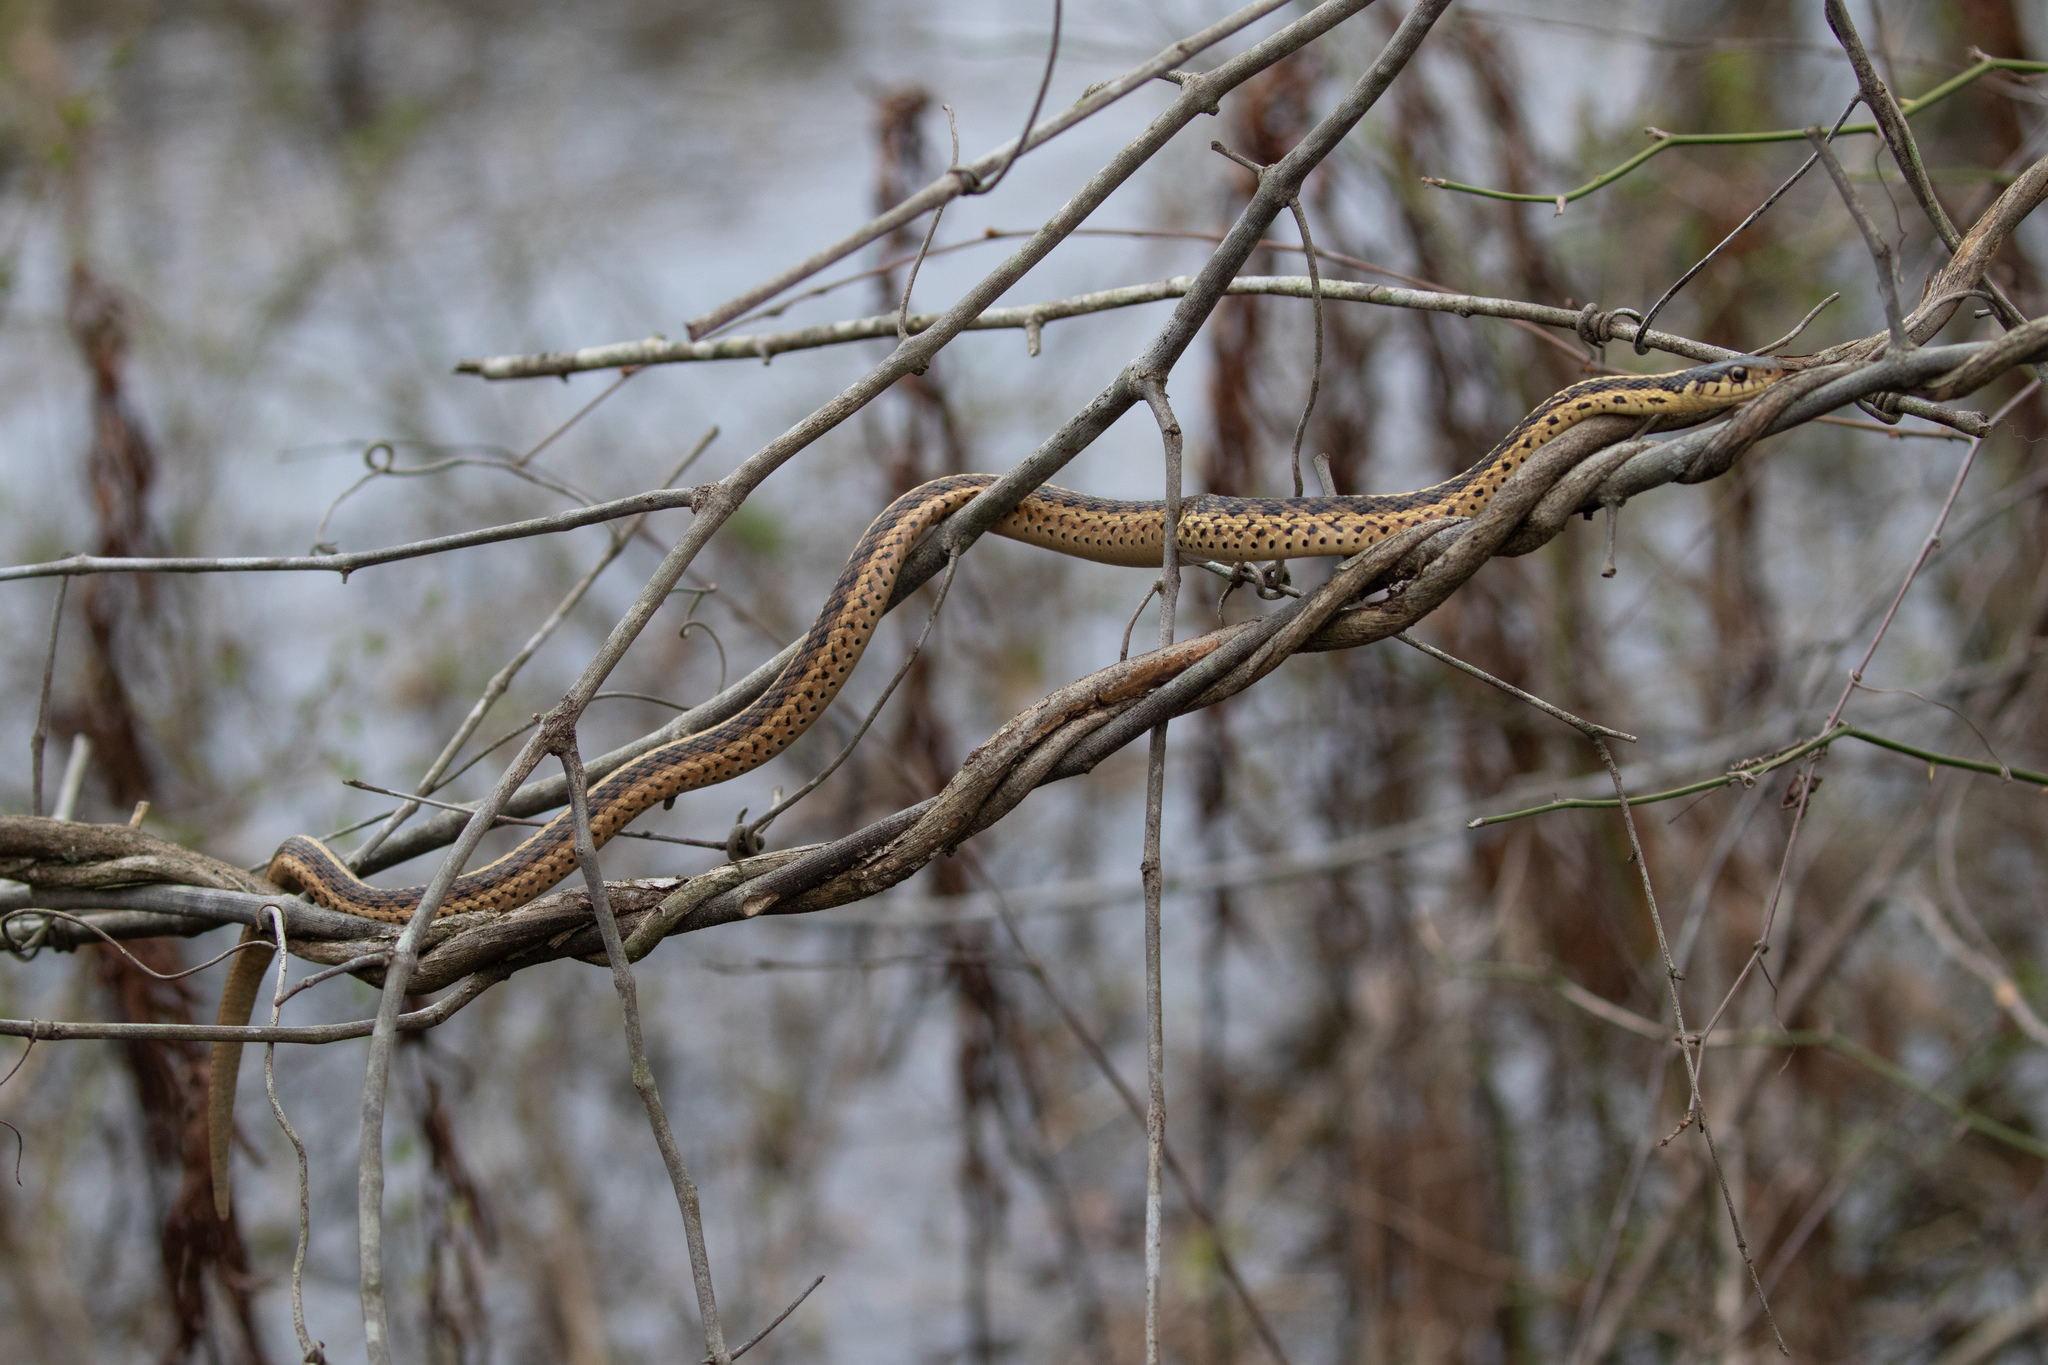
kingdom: Animalia
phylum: Chordata
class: Squamata
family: Colubridae
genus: Thamnophis
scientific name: Thamnophis sirtalis
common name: Common garter snake
